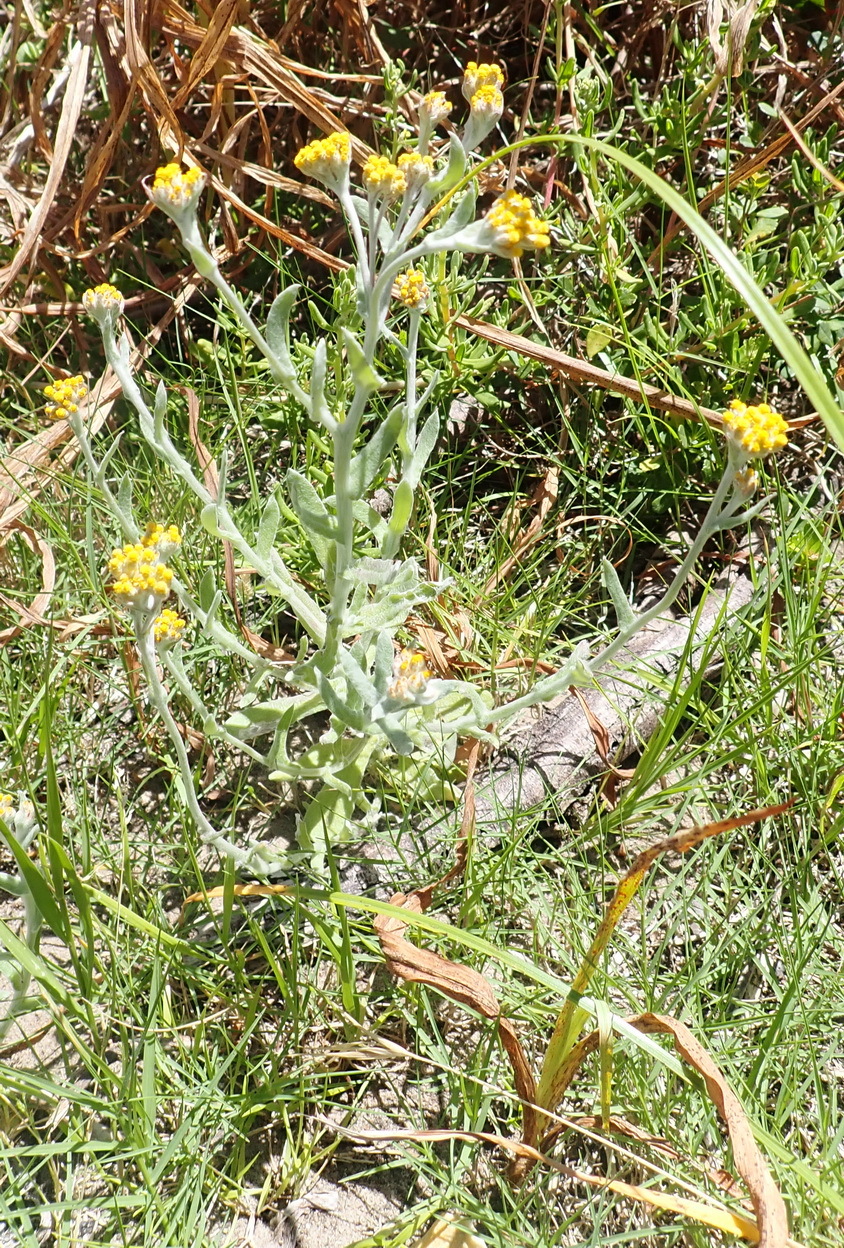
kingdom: Plantae
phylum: Tracheophyta
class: Magnoliopsida
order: Asterales
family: Asteraceae
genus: Helichrysum
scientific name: Helichrysum odoratissimum
